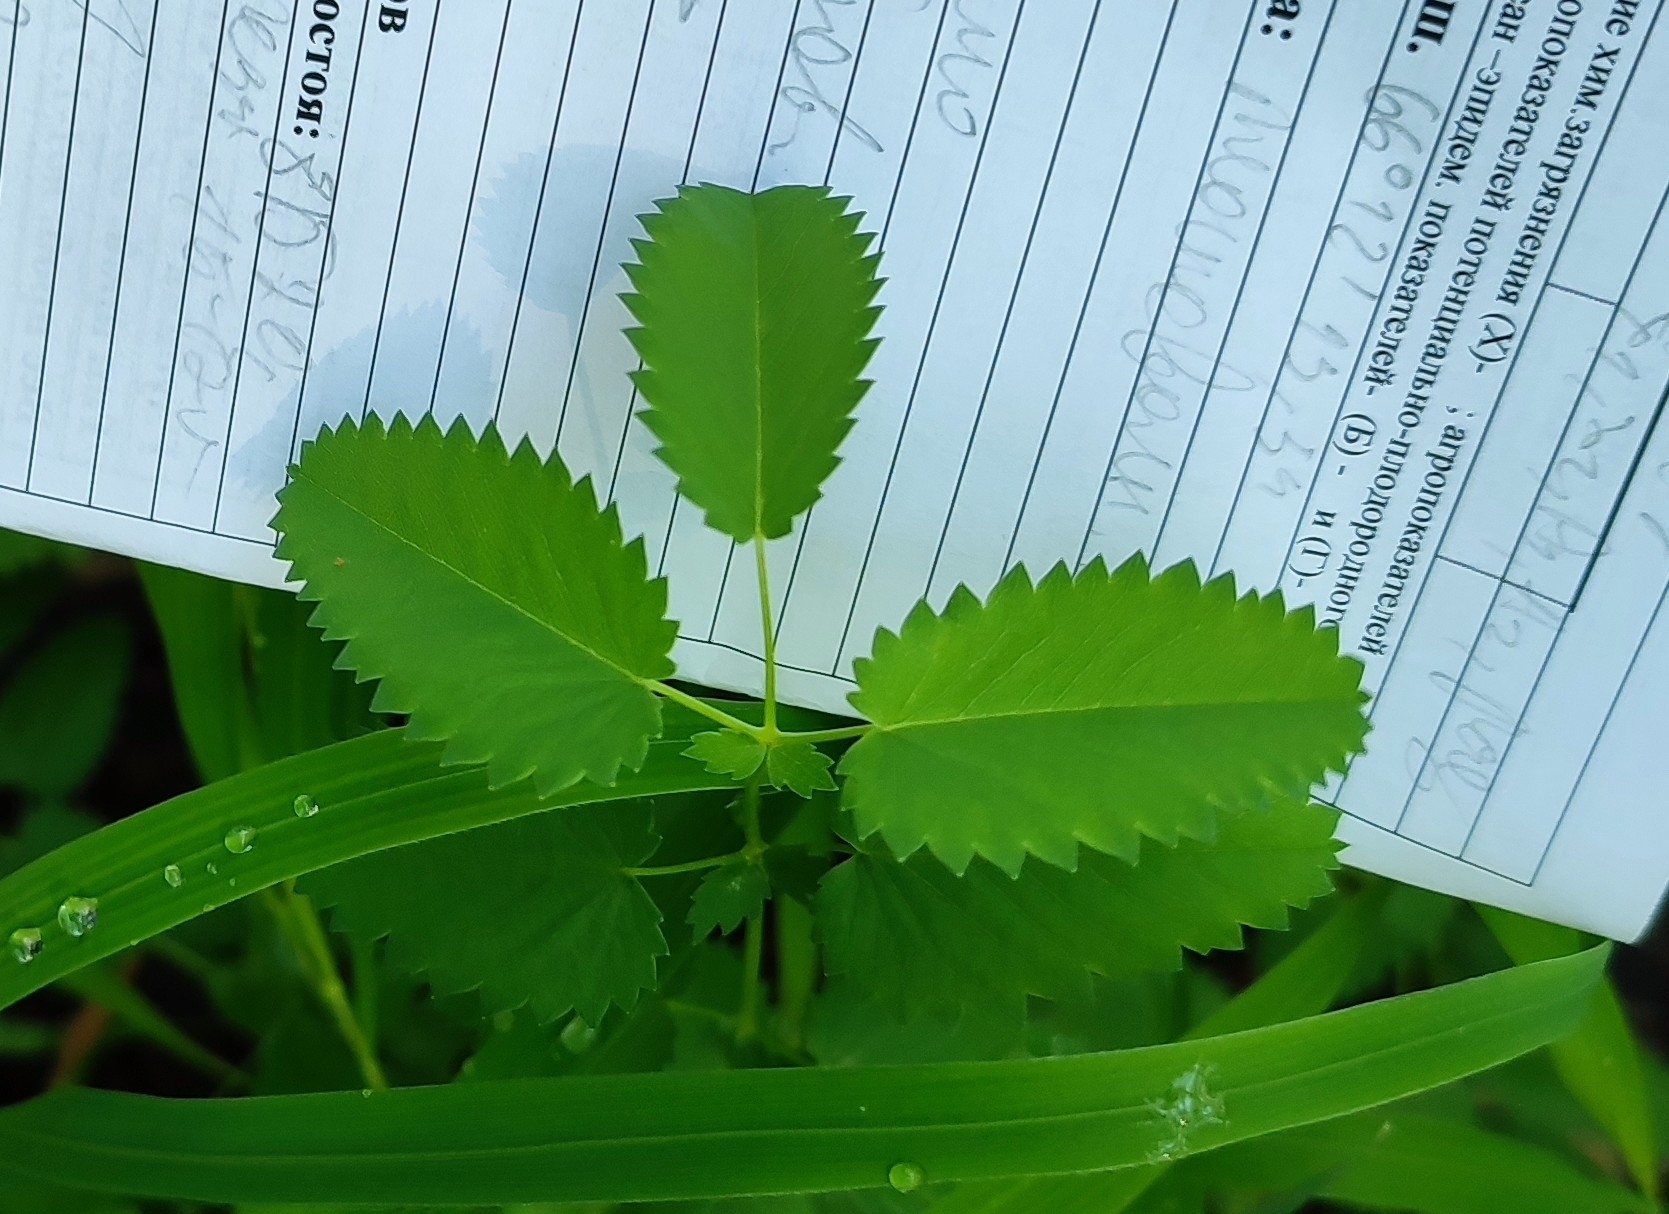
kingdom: Plantae
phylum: Tracheophyta
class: Magnoliopsida
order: Rosales
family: Rosaceae
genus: Sanguisorba
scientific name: Sanguisorba officinalis
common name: Great burnet
